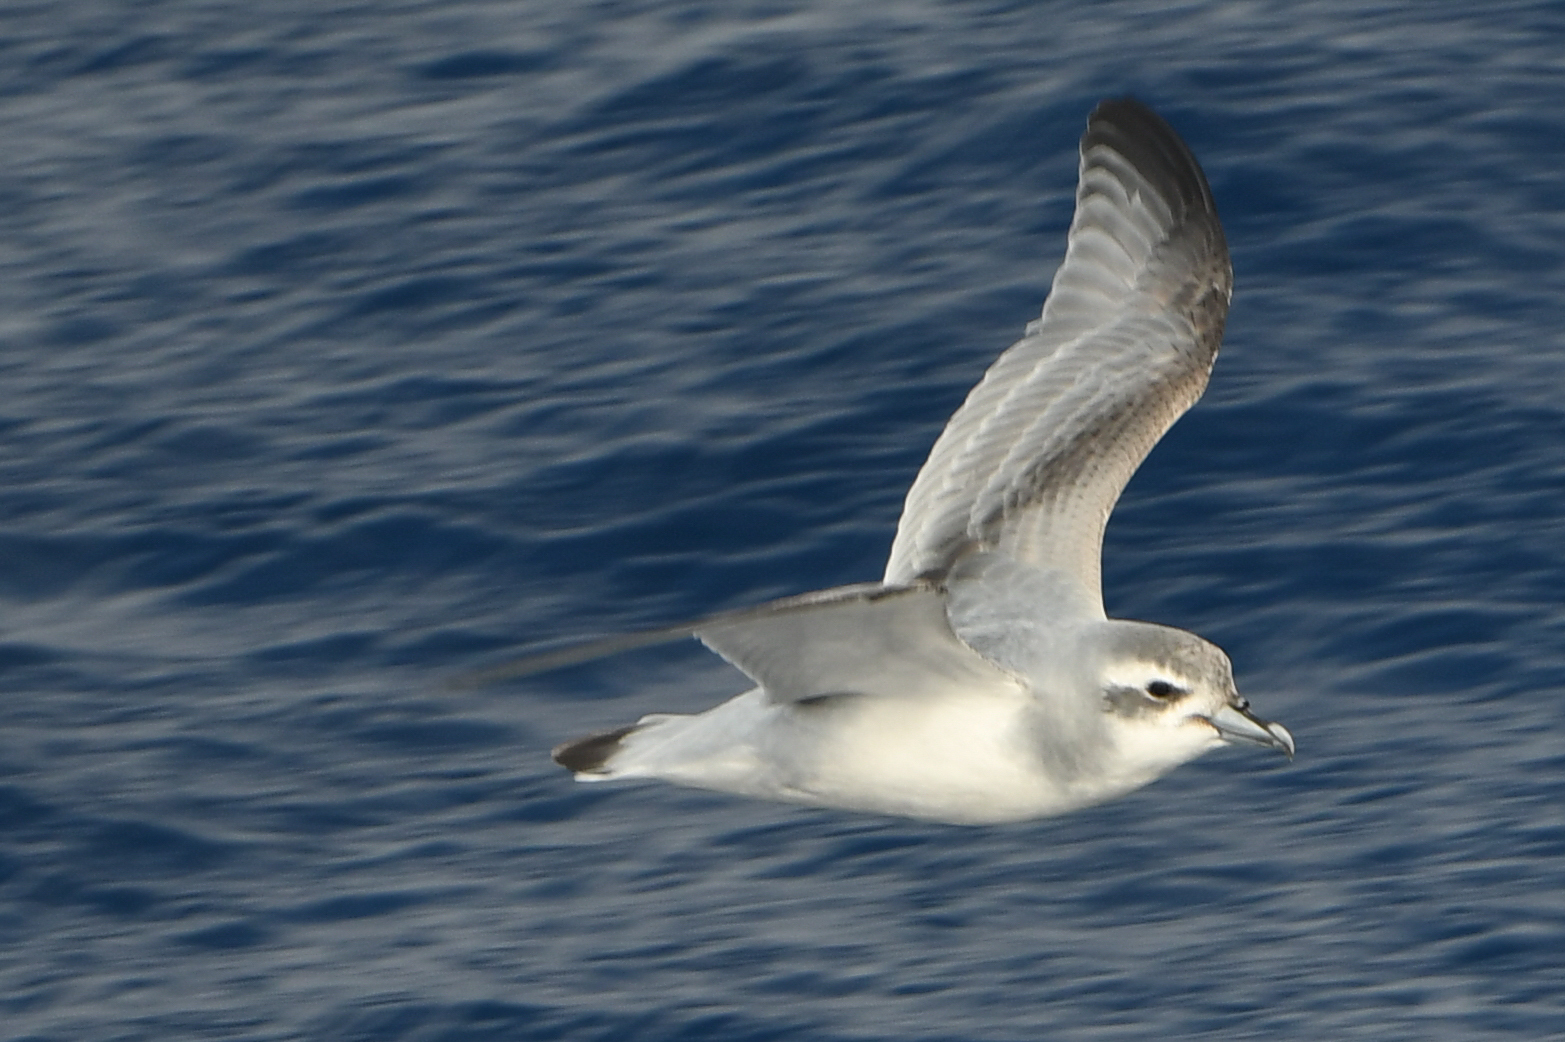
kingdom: Animalia
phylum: Chordata
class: Aves
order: Procellariiformes
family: Procellariidae
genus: Pachyptila
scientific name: Pachyptila desolata
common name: Antarctic prion
